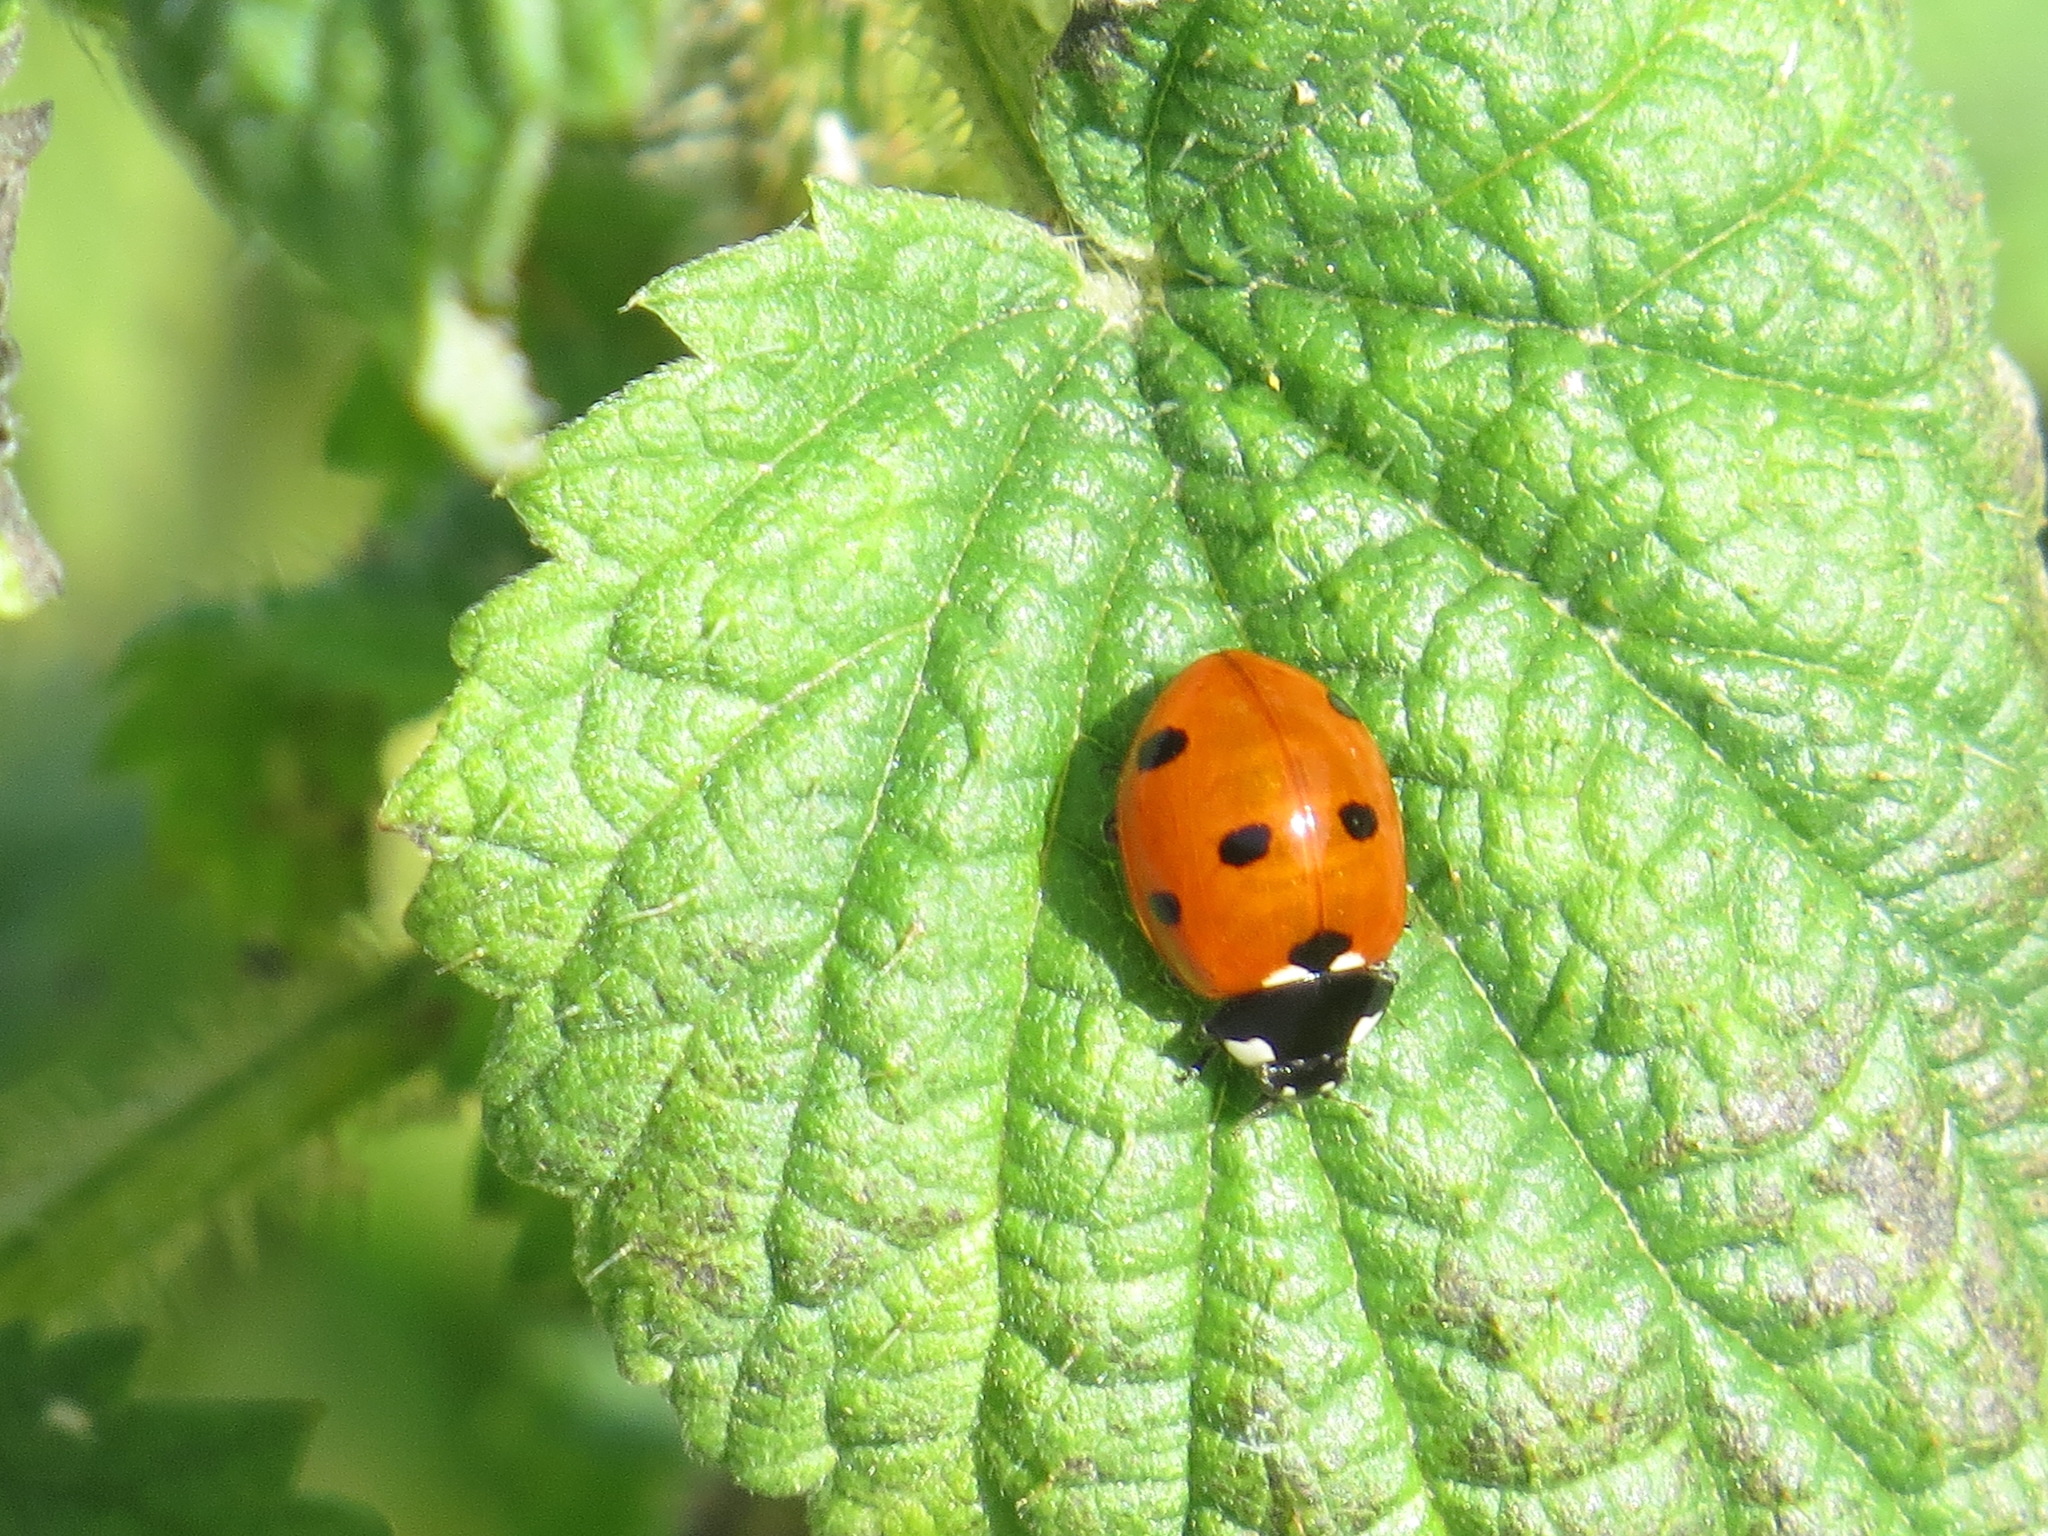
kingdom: Animalia
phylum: Arthropoda
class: Insecta
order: Coleoptera
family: Coccinellidae
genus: Coccinella
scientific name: Coccinella septempunctata
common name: Sevenspotted lady beetle
